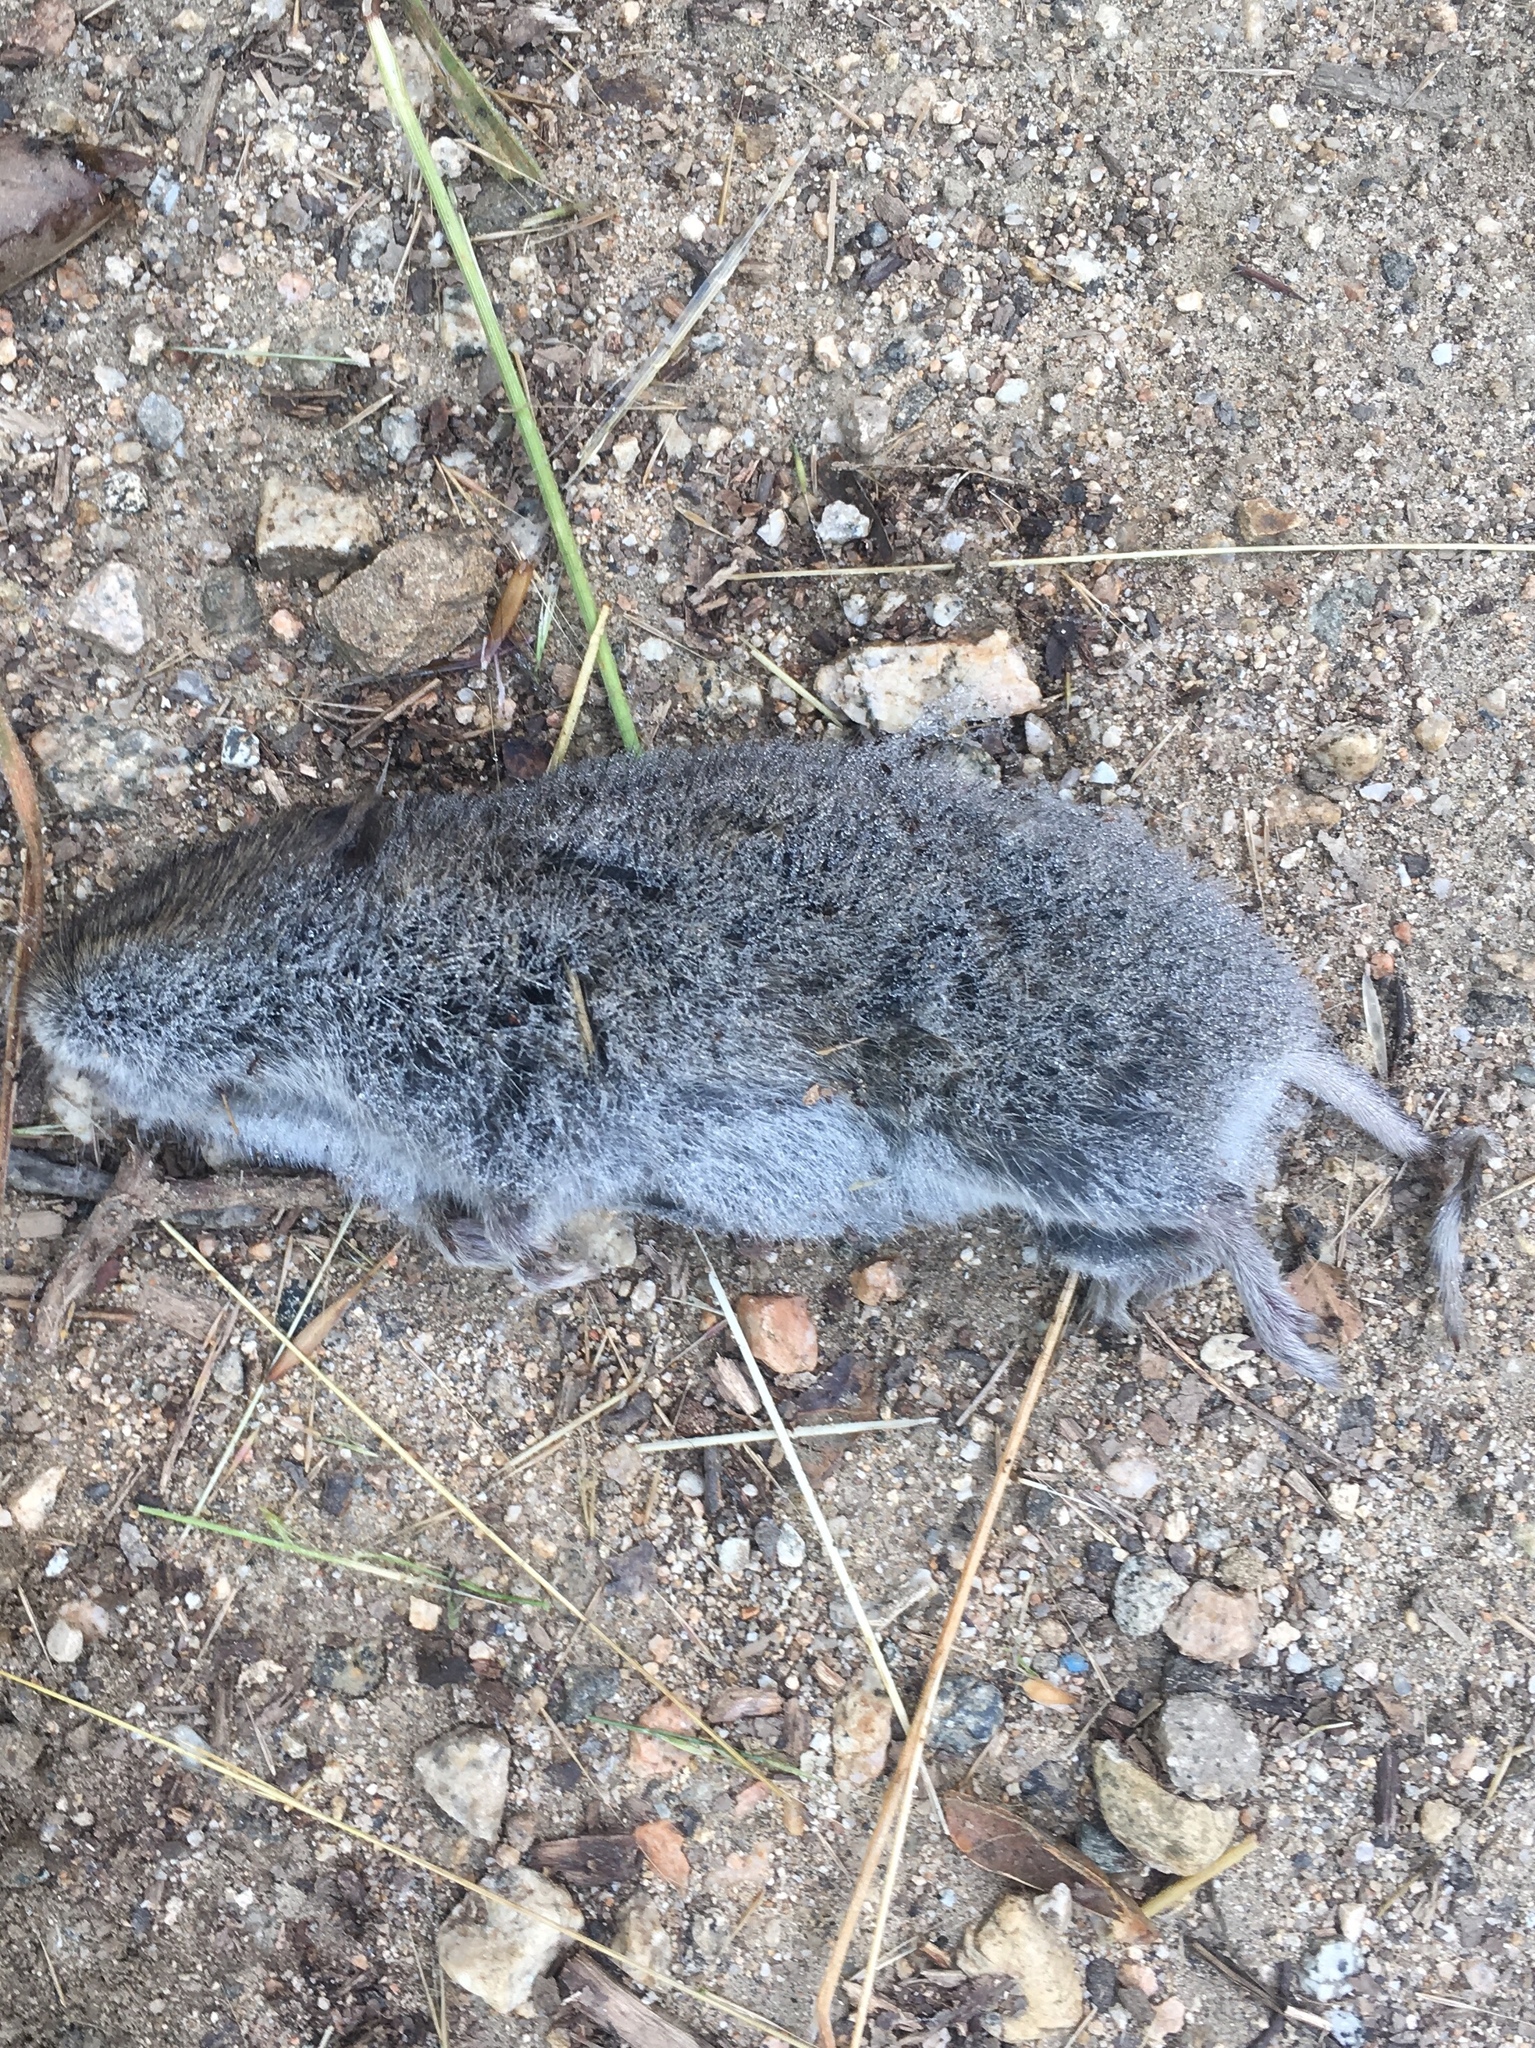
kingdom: Animalia
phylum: Chordata
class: Mammalia
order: Rodentia
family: Cricetidae
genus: Microtus
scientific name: Microtus californicus
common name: California vole
